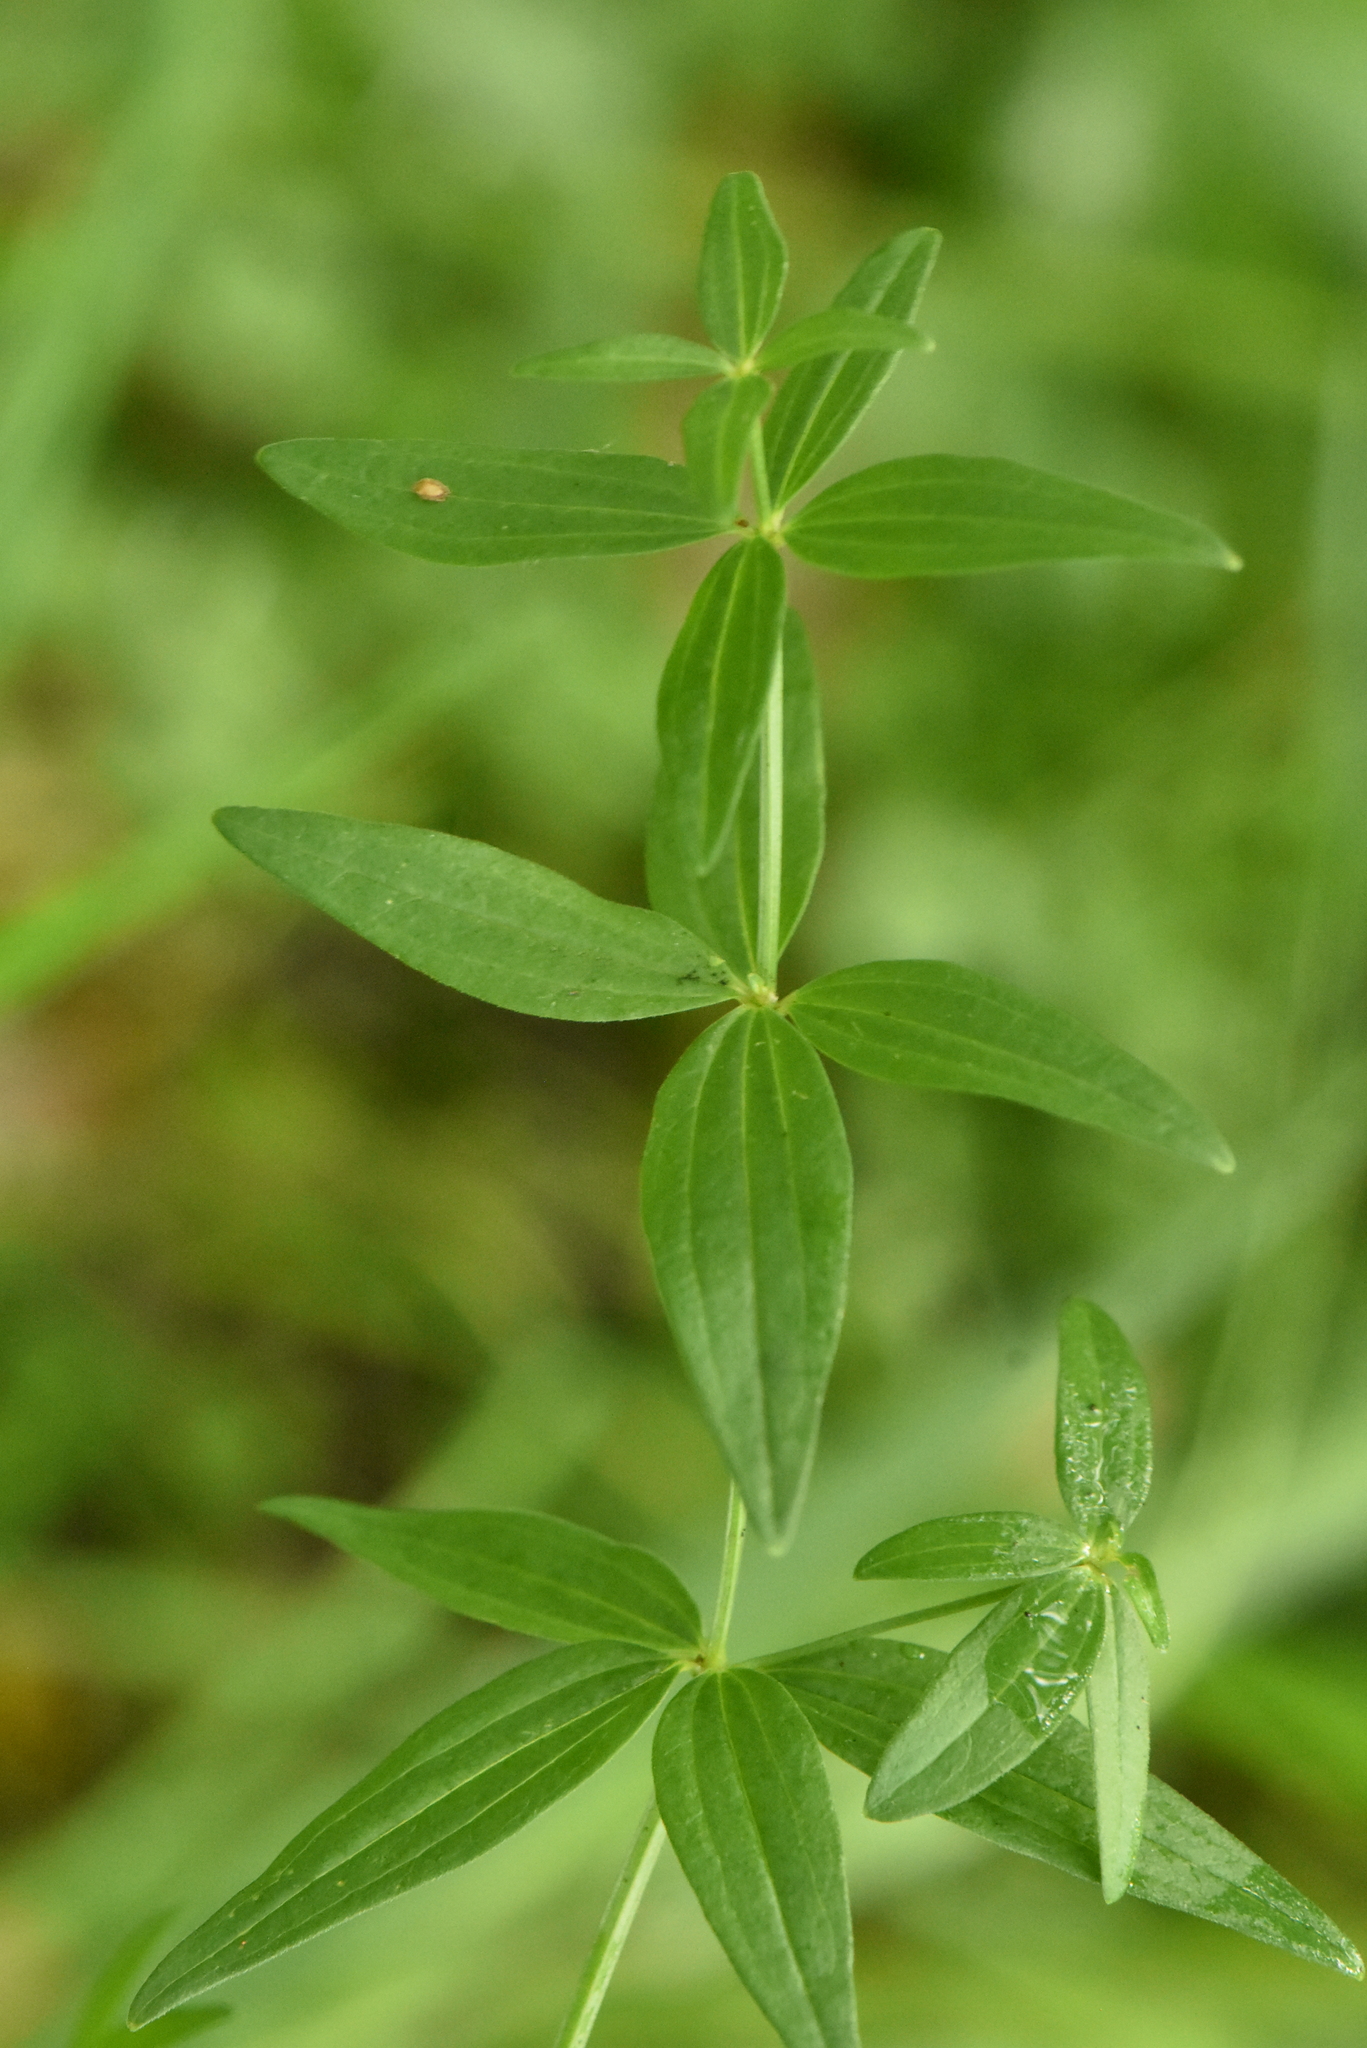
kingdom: Plantae
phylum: Tracheophyta
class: Magnoliopsida
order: Gentianales
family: Rubiaceae
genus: Galium
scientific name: Galium boreale
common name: Northern bedstraw
